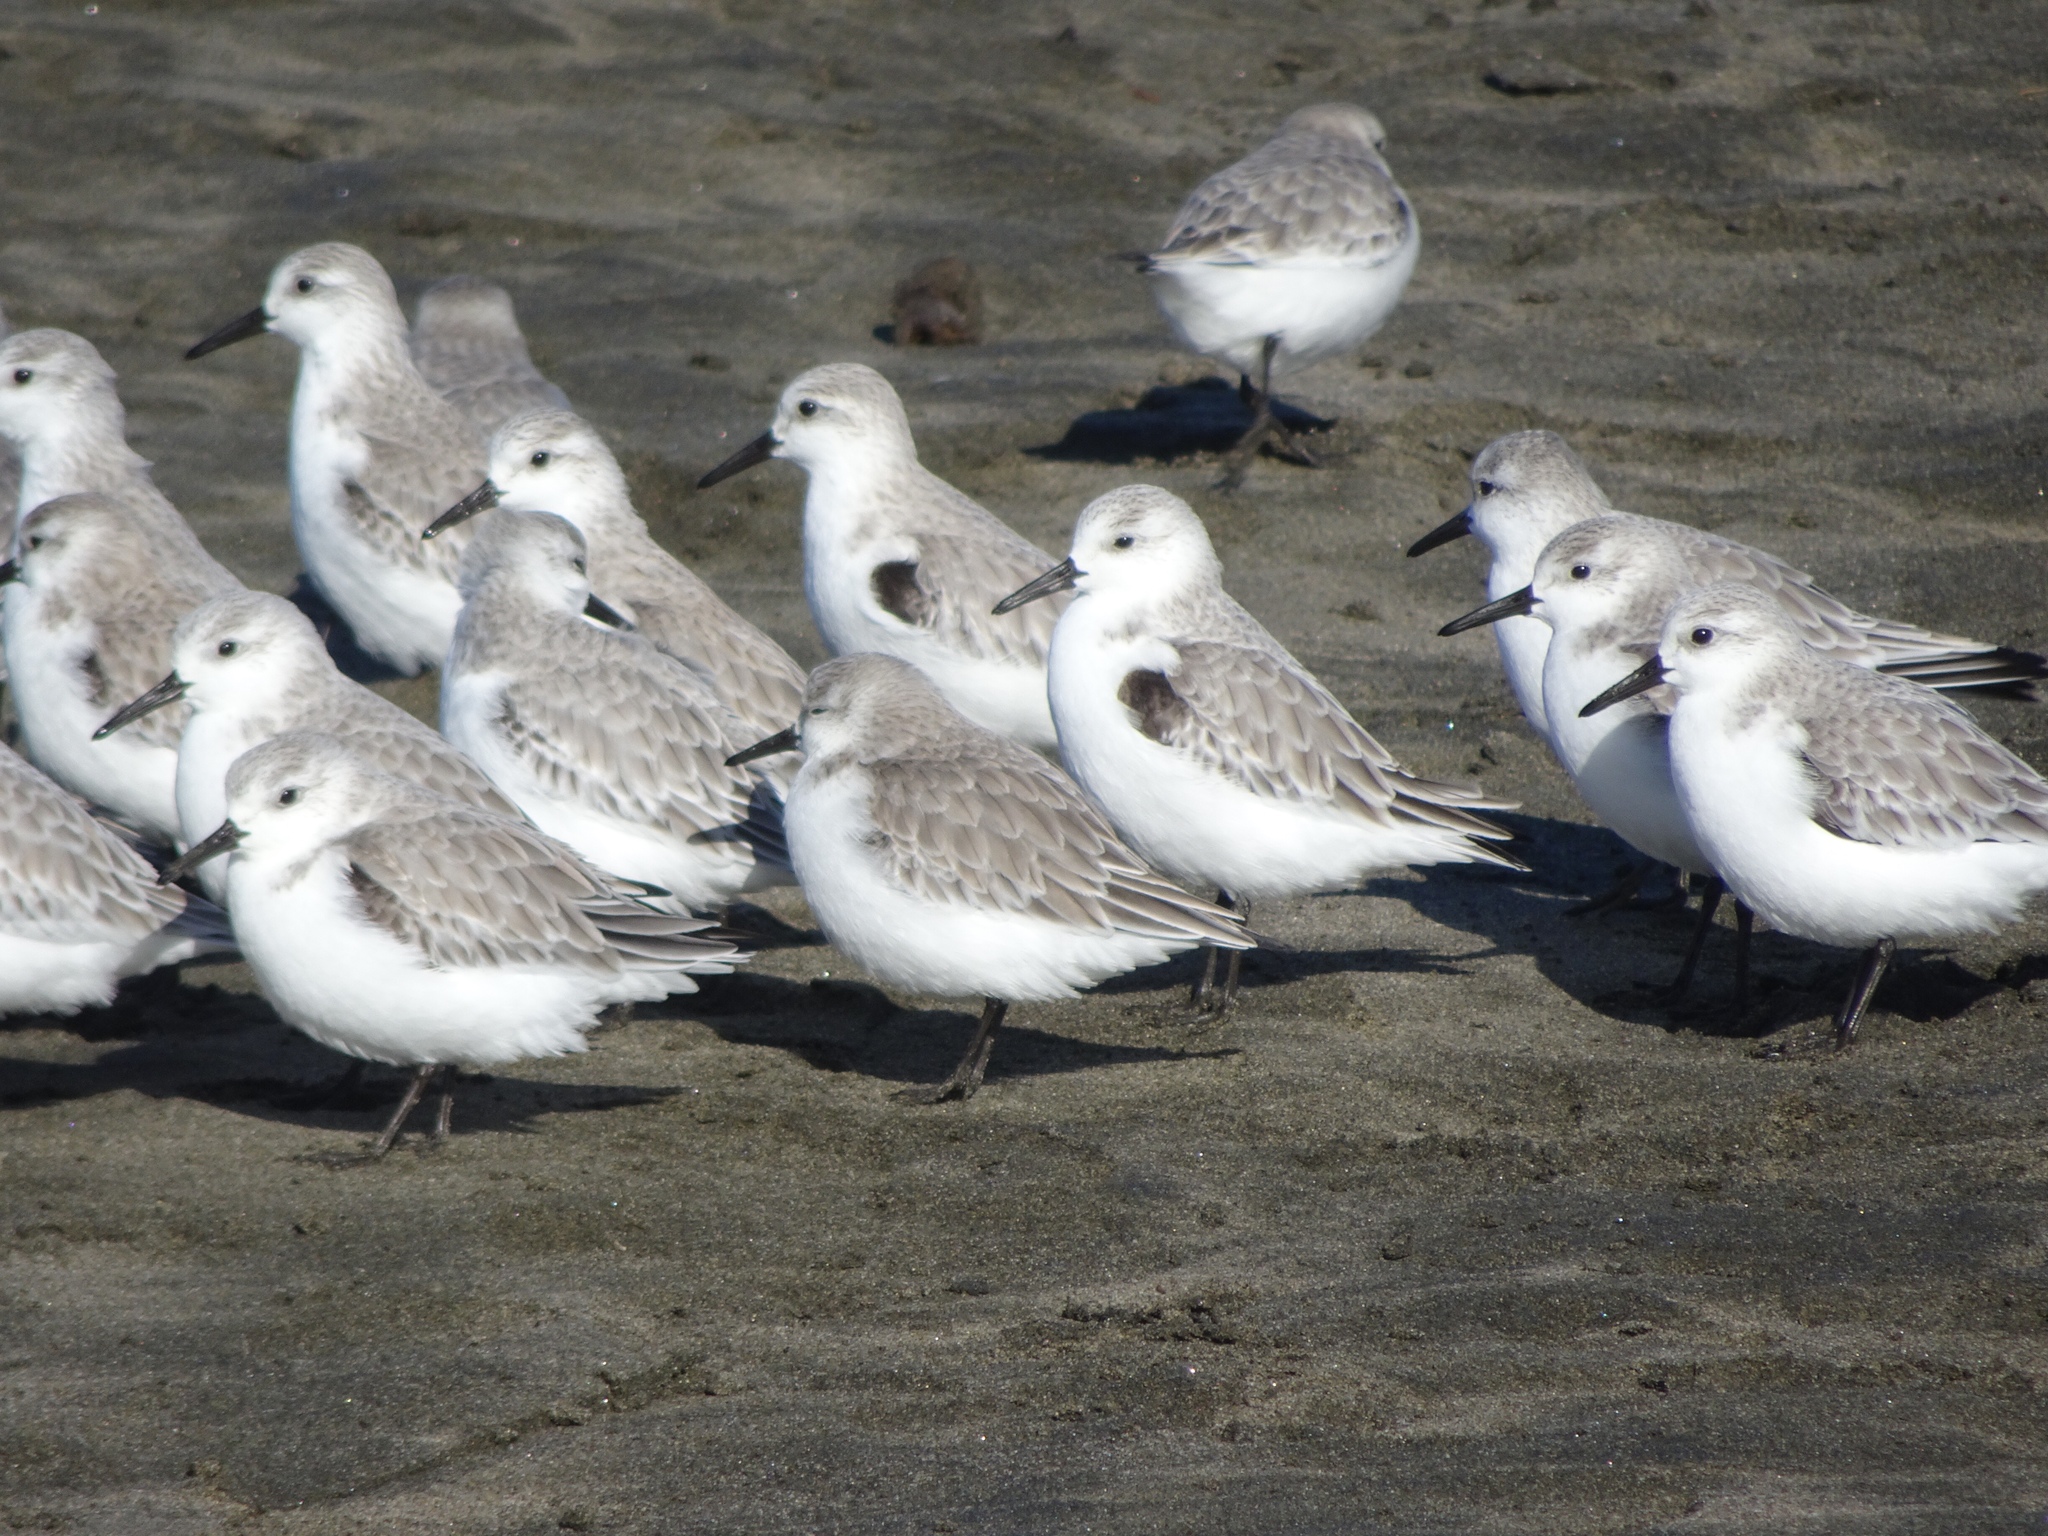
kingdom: Animalia
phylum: Chordata
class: Aves
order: Charadriiformes
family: Scolopacidae
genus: Calidris
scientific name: Calidris alba
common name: Sanderling
